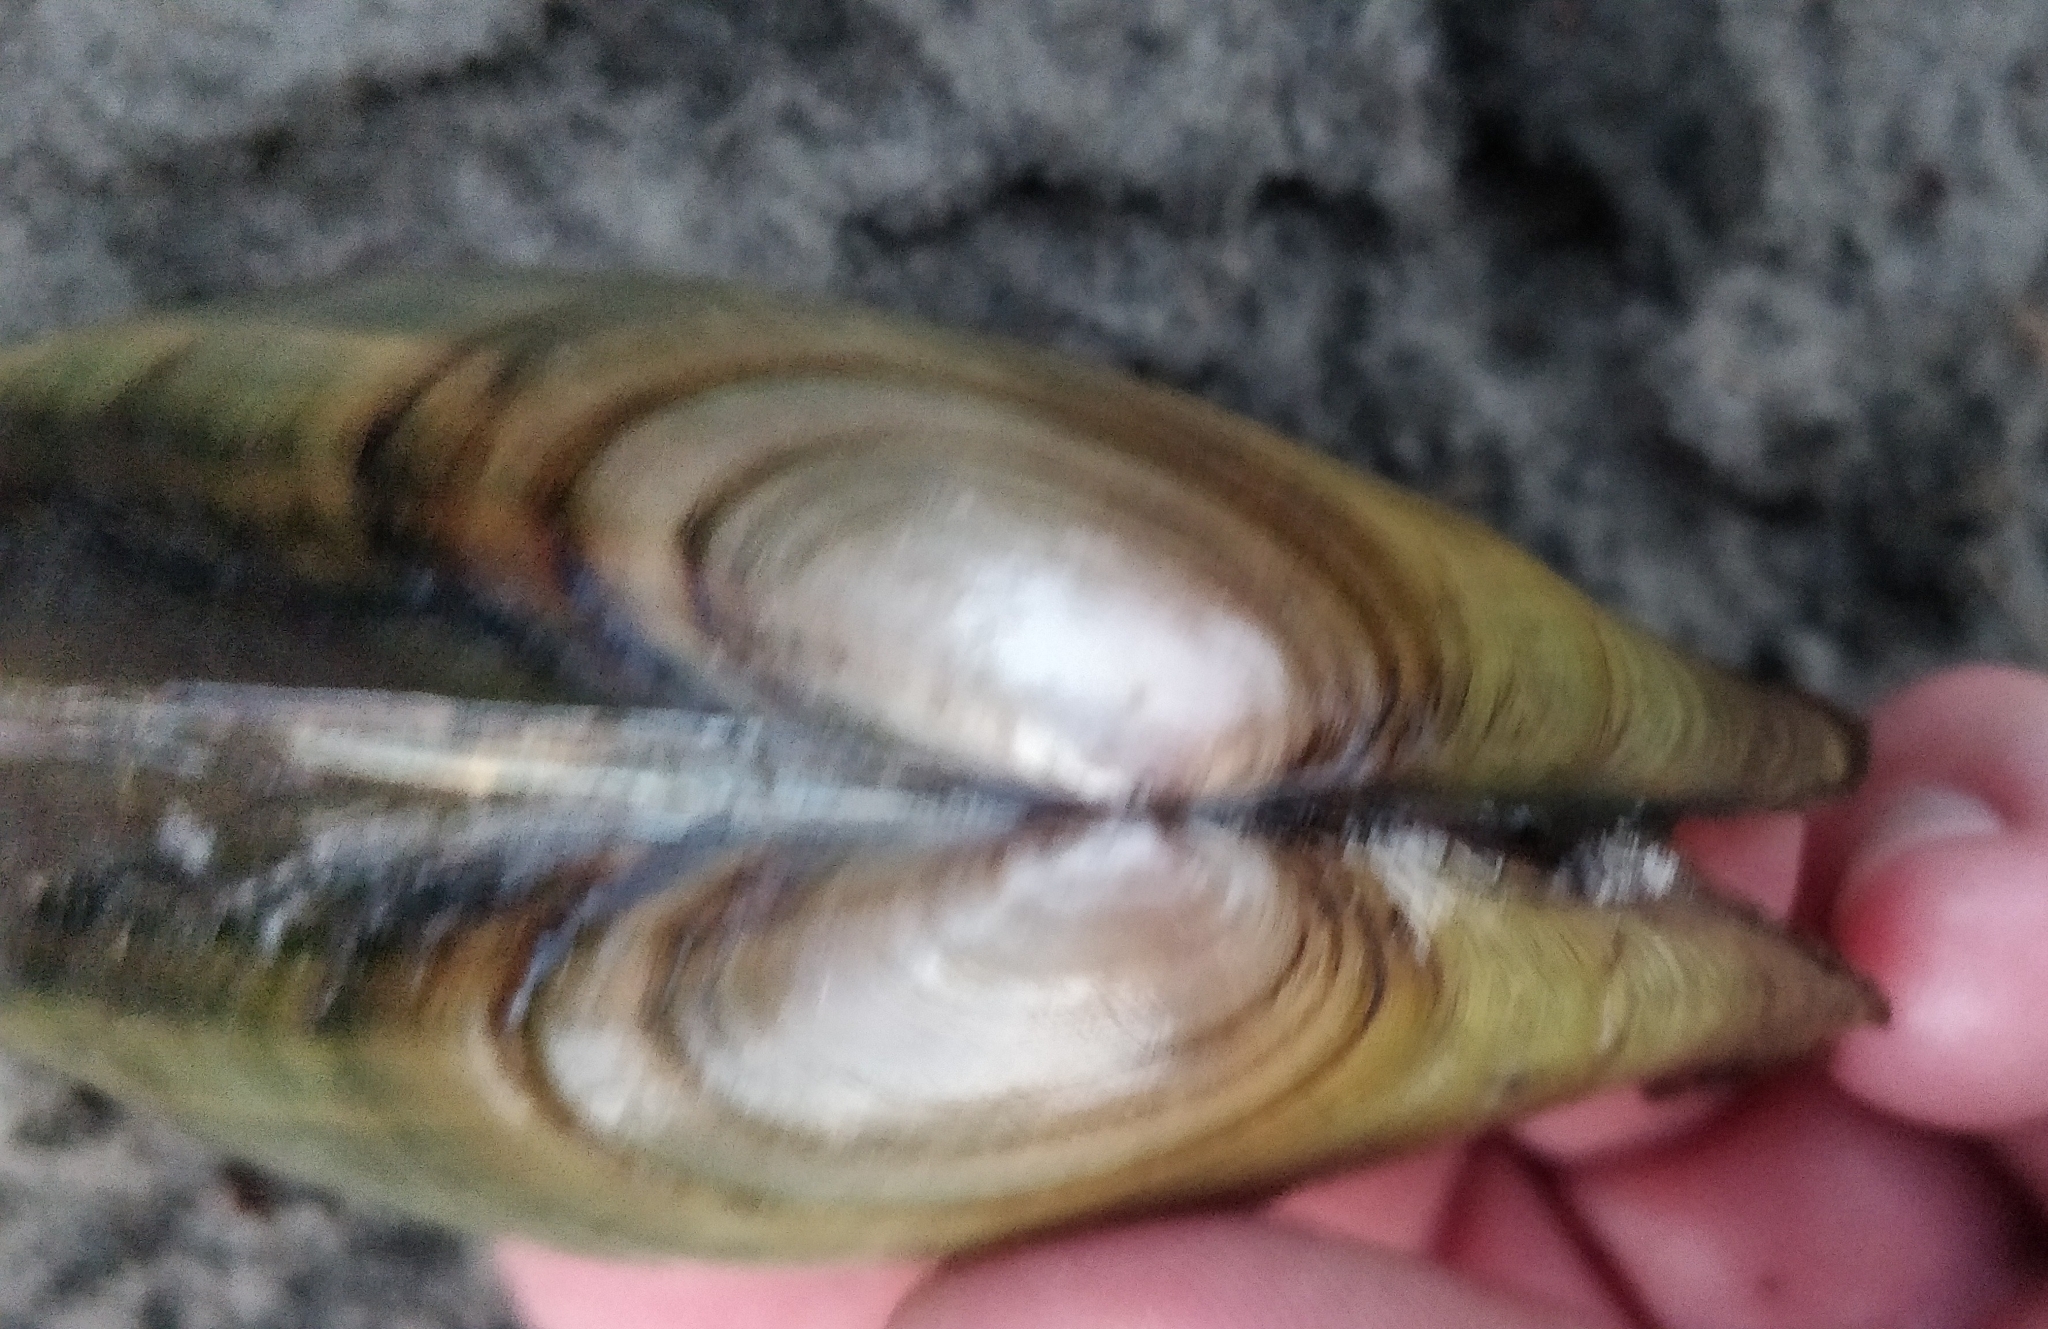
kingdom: Animalia
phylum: Mollusca
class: Bivalvia
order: Unionida
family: Unionidae
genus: Potamilus
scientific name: Potamilus fragilis
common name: Fragile papershell
